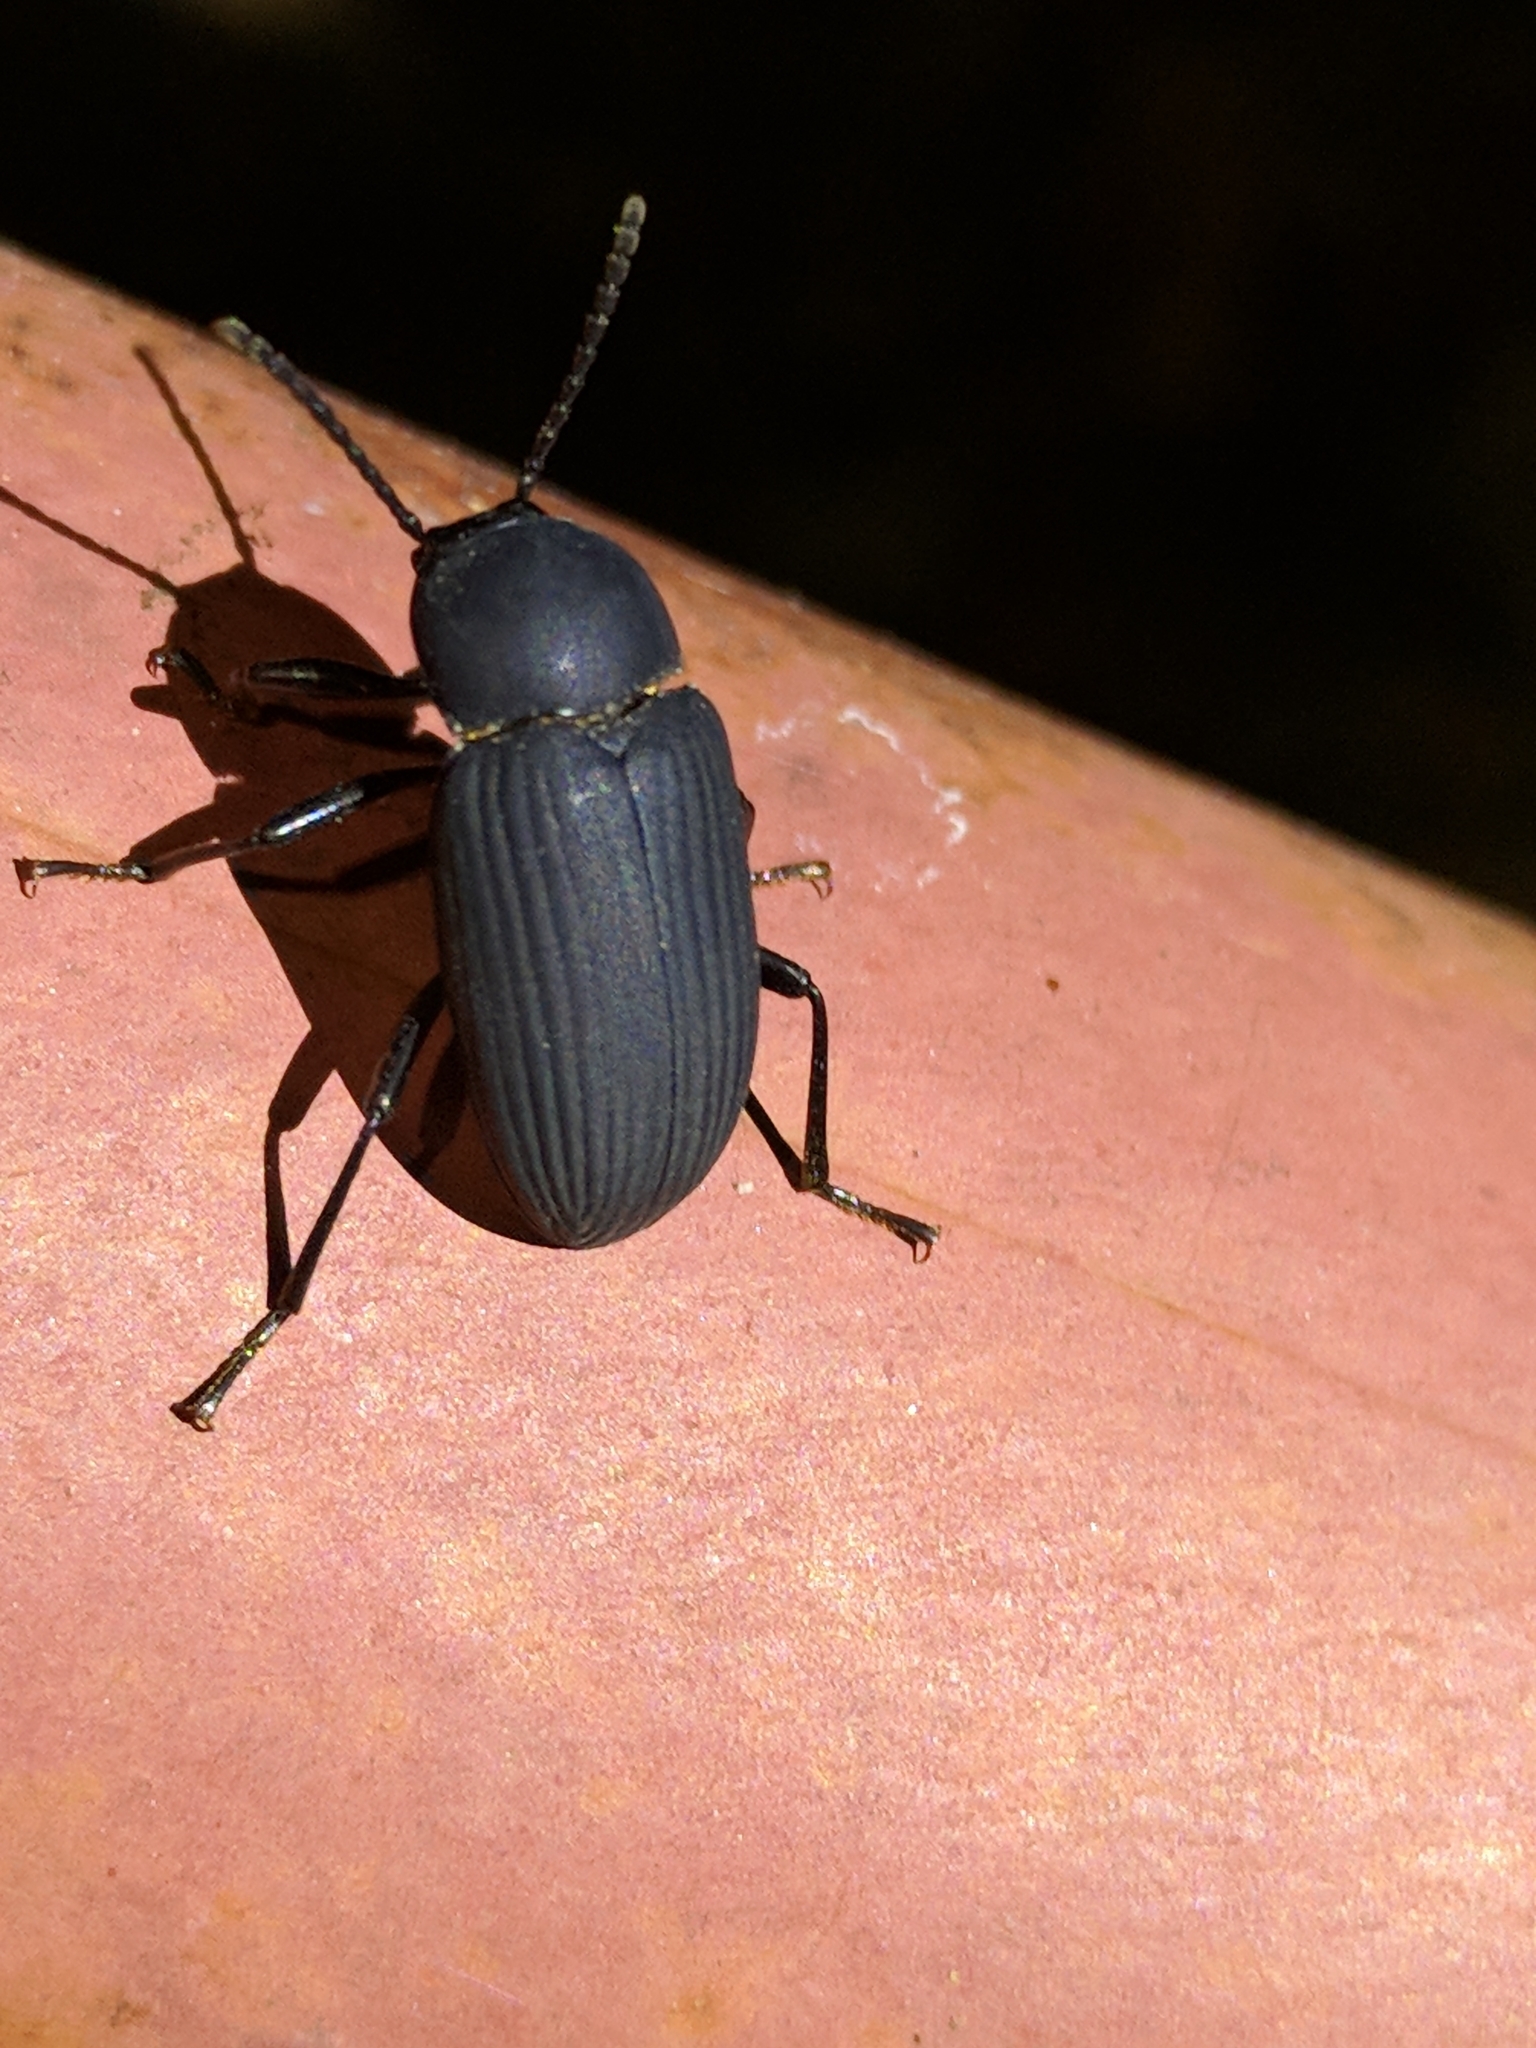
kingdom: Animalia
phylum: Arthropoda
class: Insecta
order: Coleoptera
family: Tenebrionidae
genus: Cymatothes
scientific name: Cymatothes unicolor
